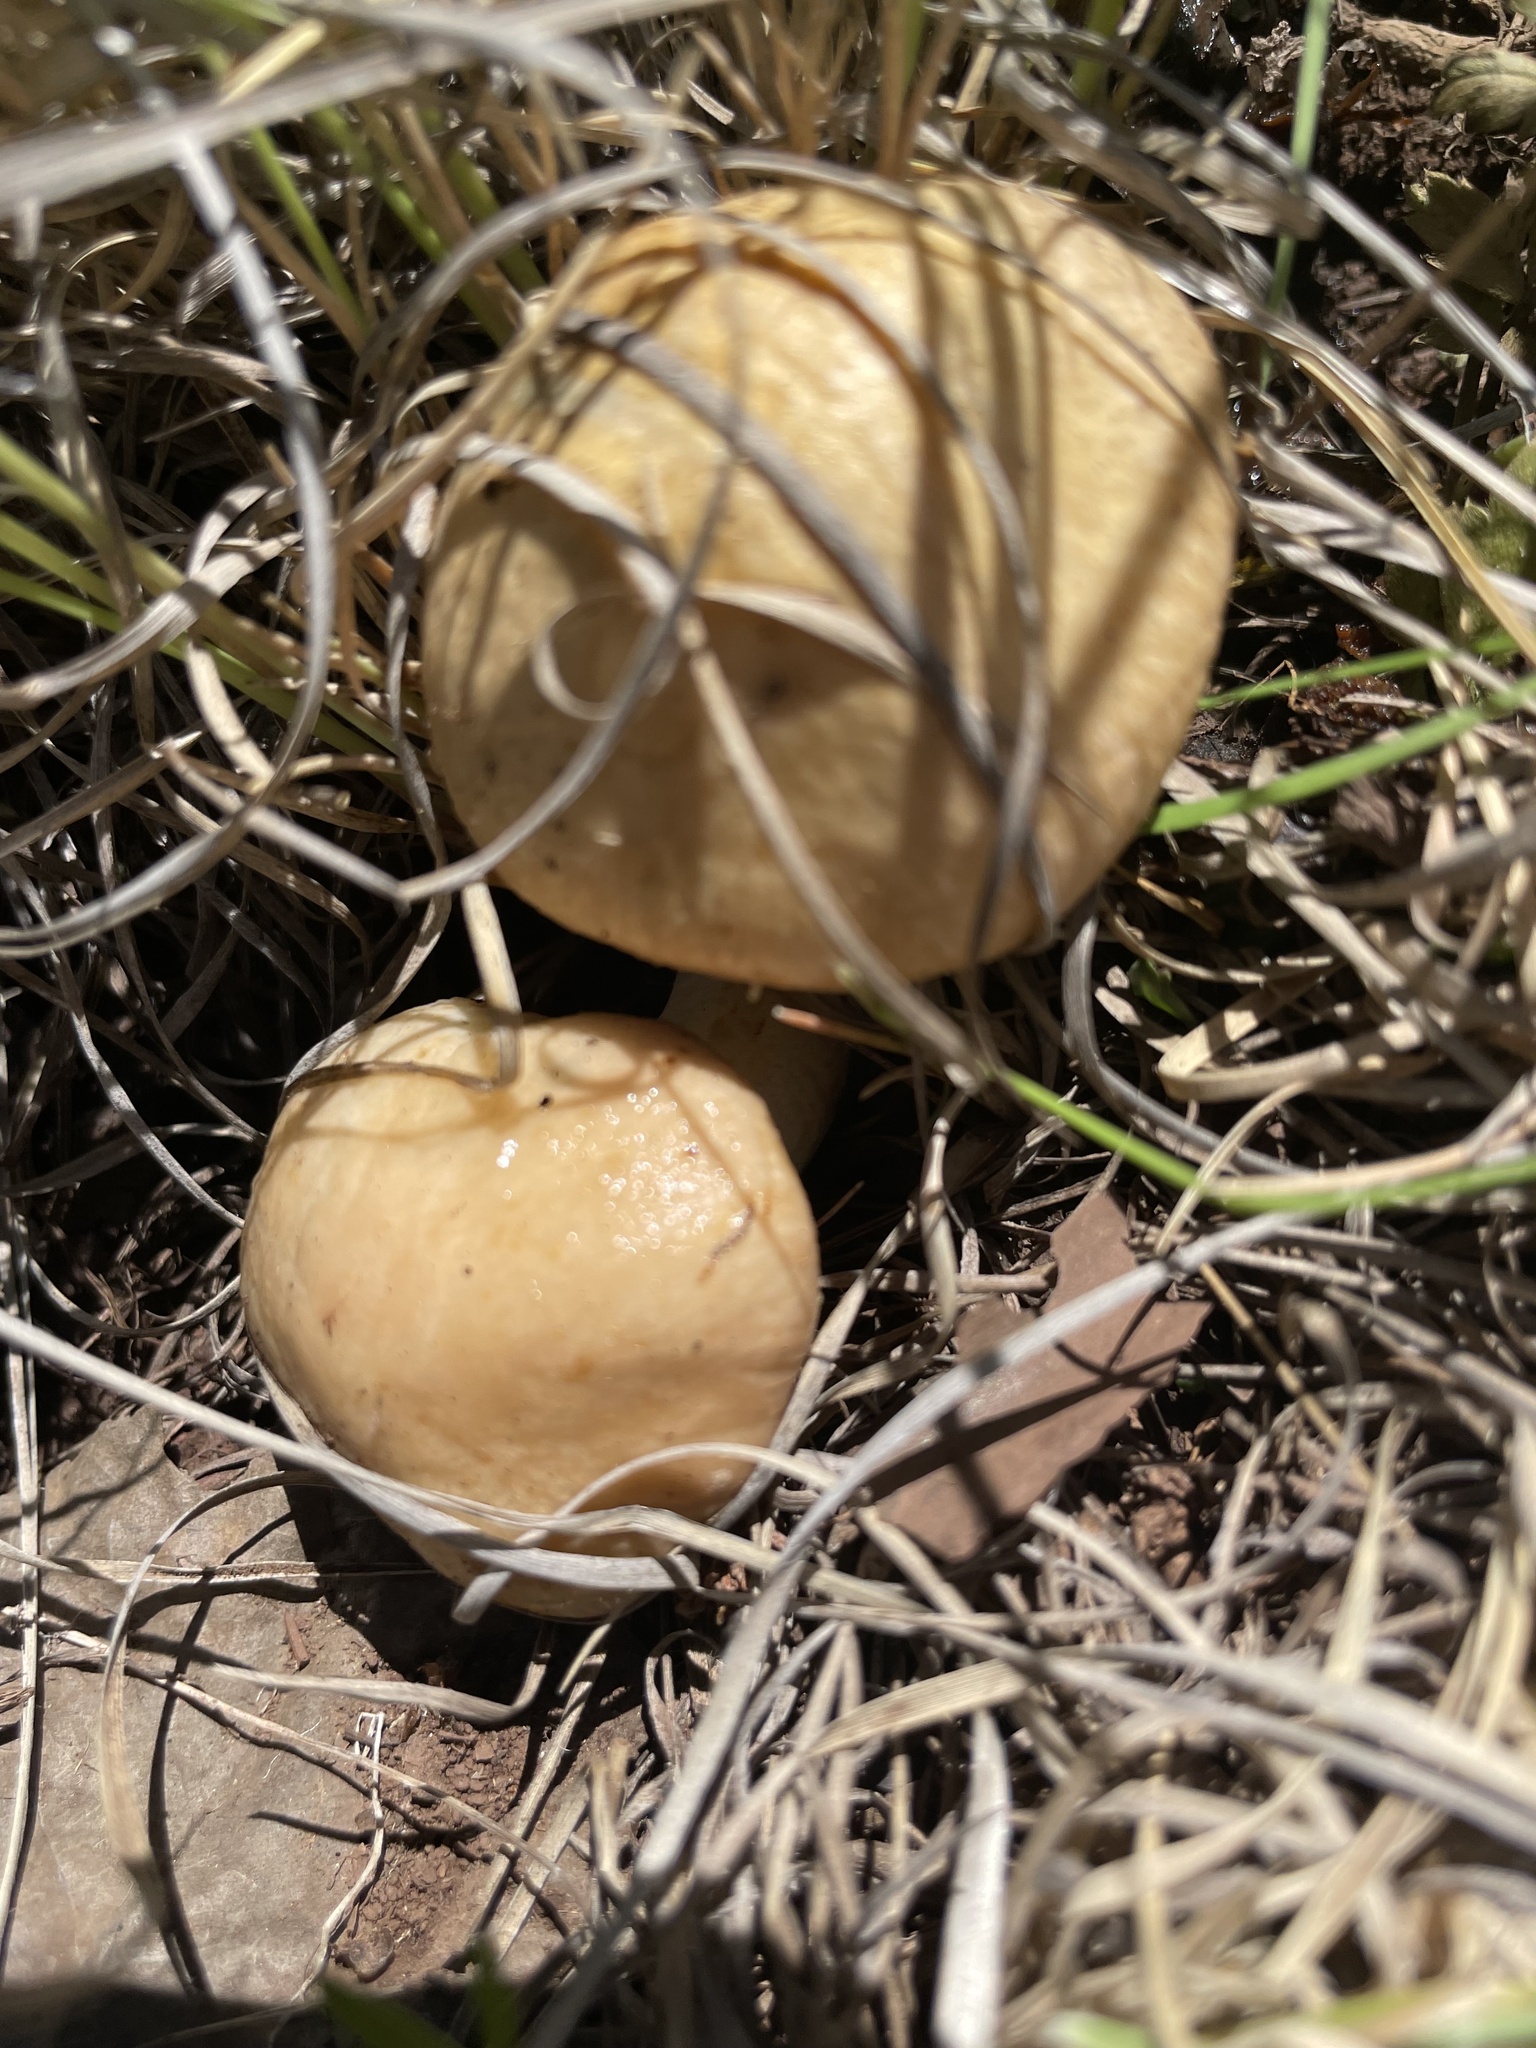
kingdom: Fungi
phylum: Basidiomycota
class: Agaricomycetes
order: Boletales
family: Suillaceae
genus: Suillus
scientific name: Suillus occidentalis
